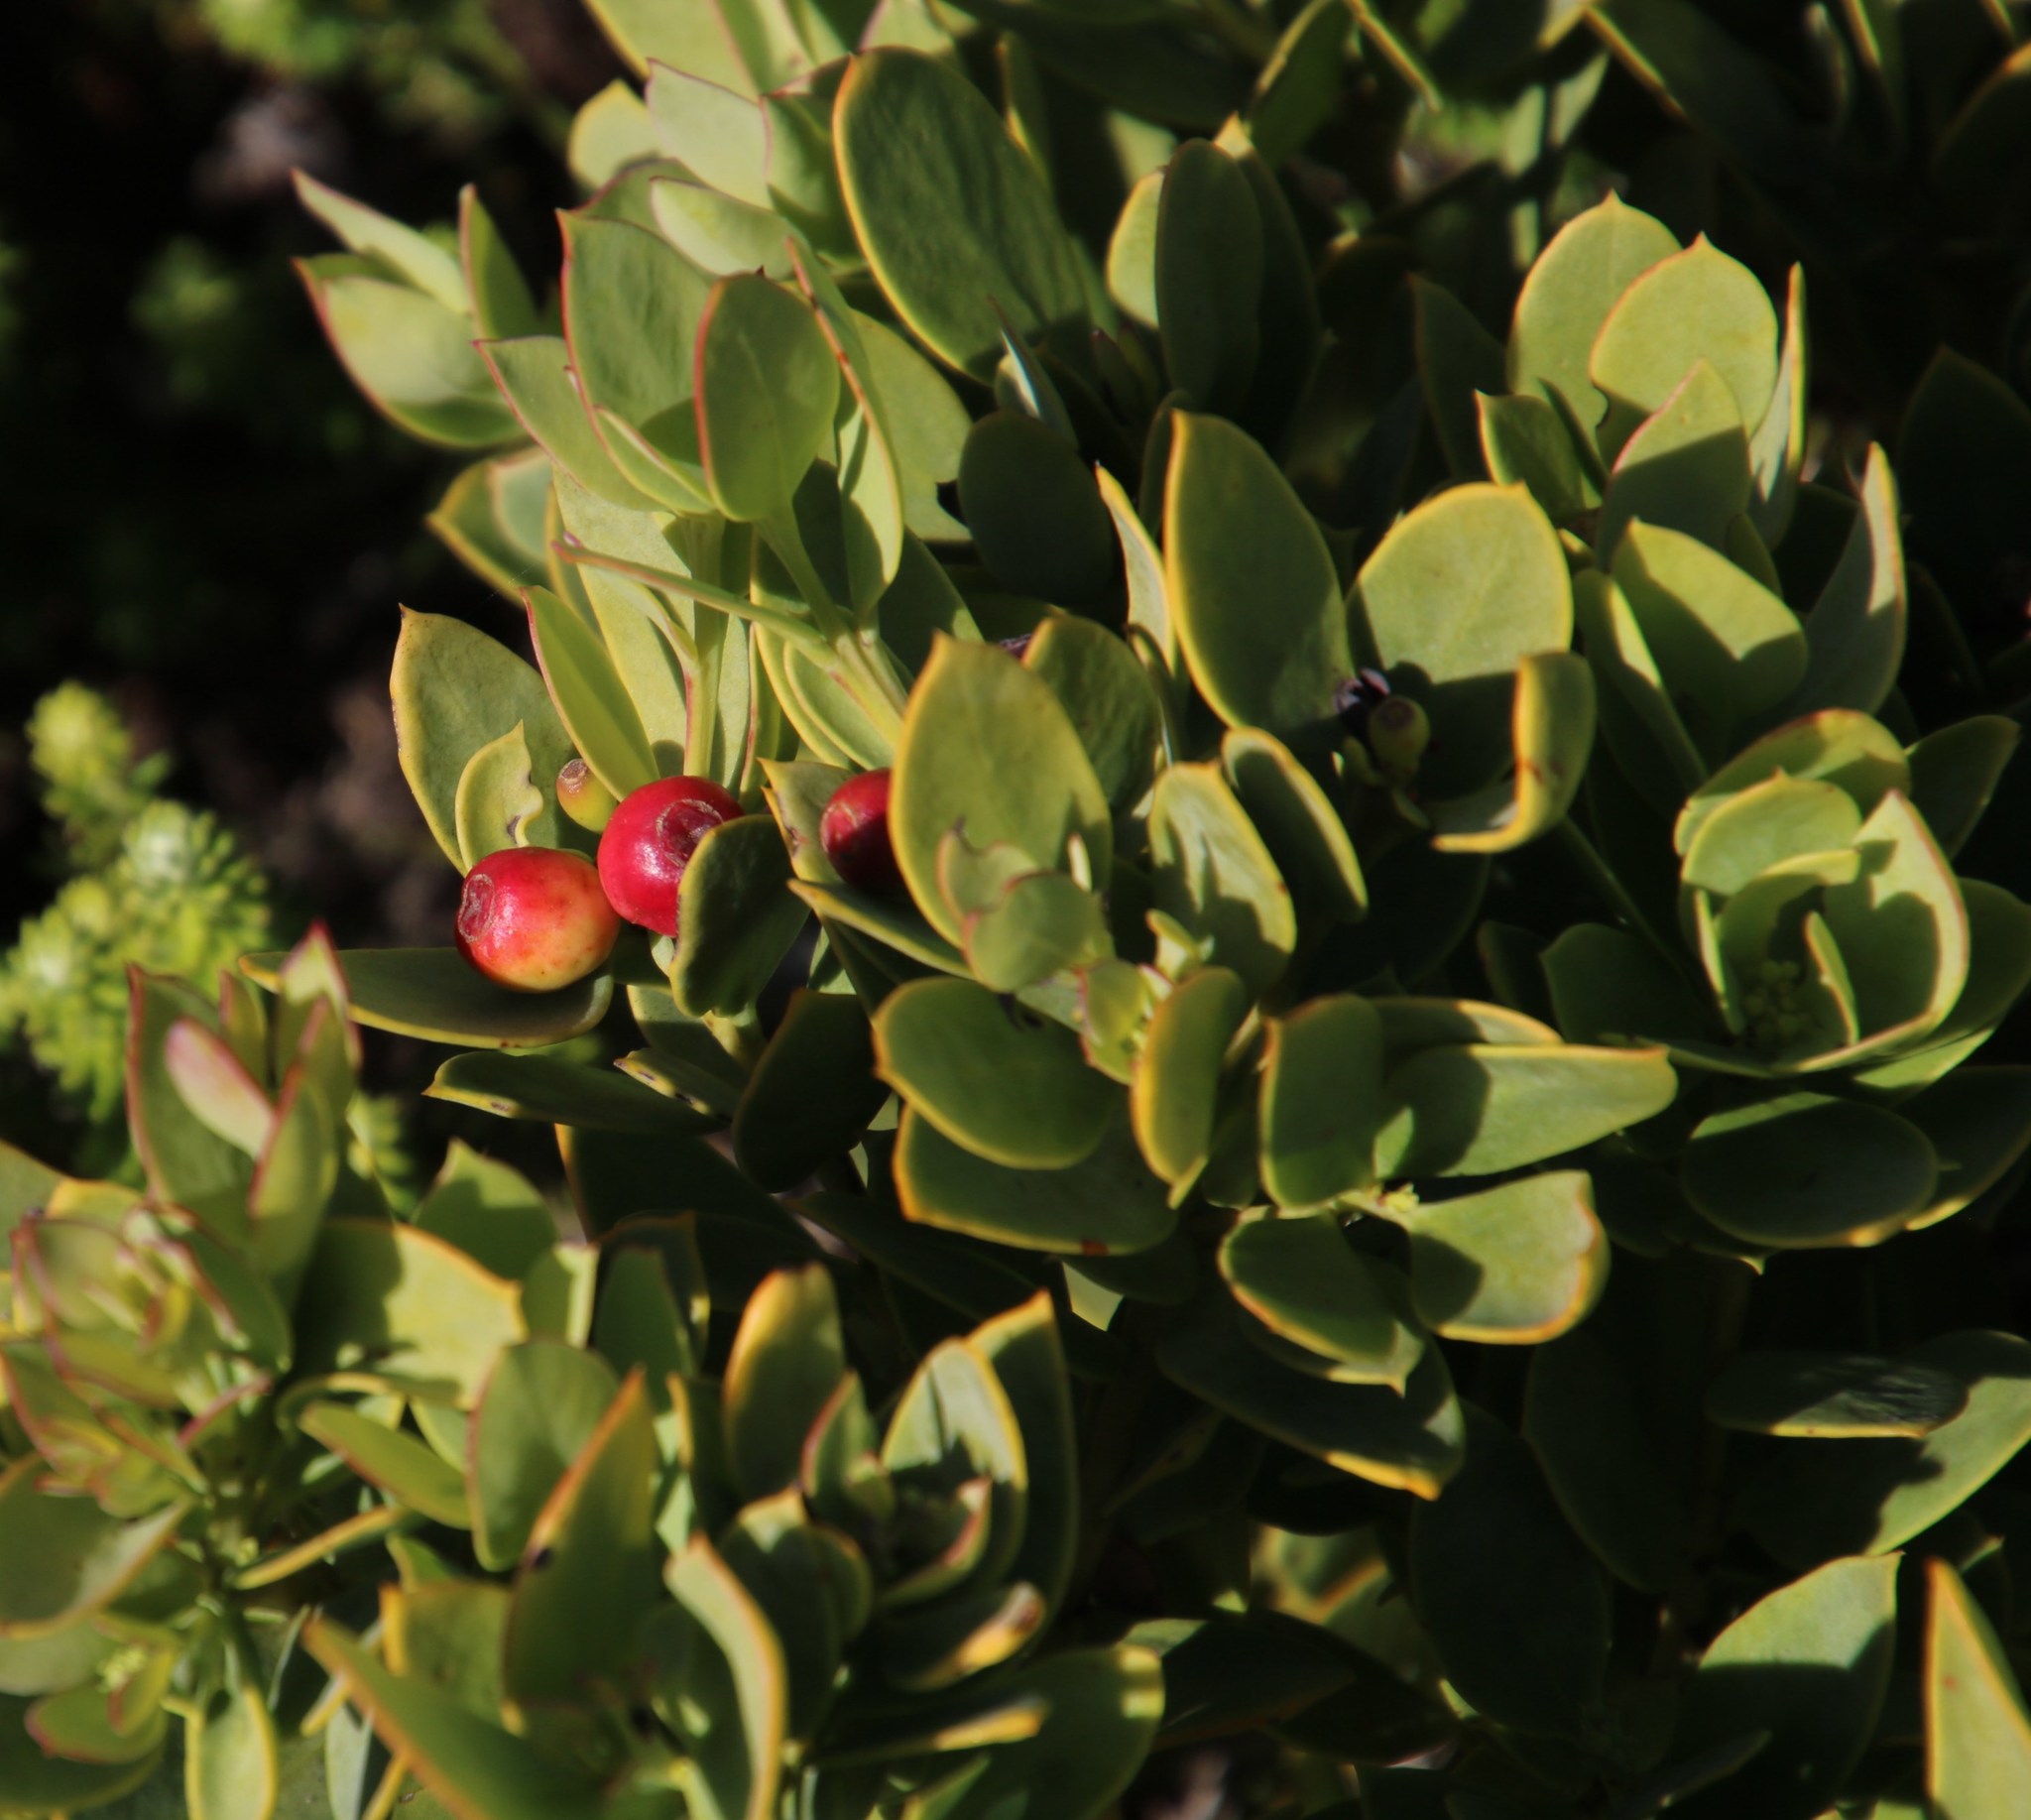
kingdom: Plantae
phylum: Tracheophyta
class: Magnoliopsida
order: Santalales
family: Santalaceae
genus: Osyris
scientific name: Osyris compressa
